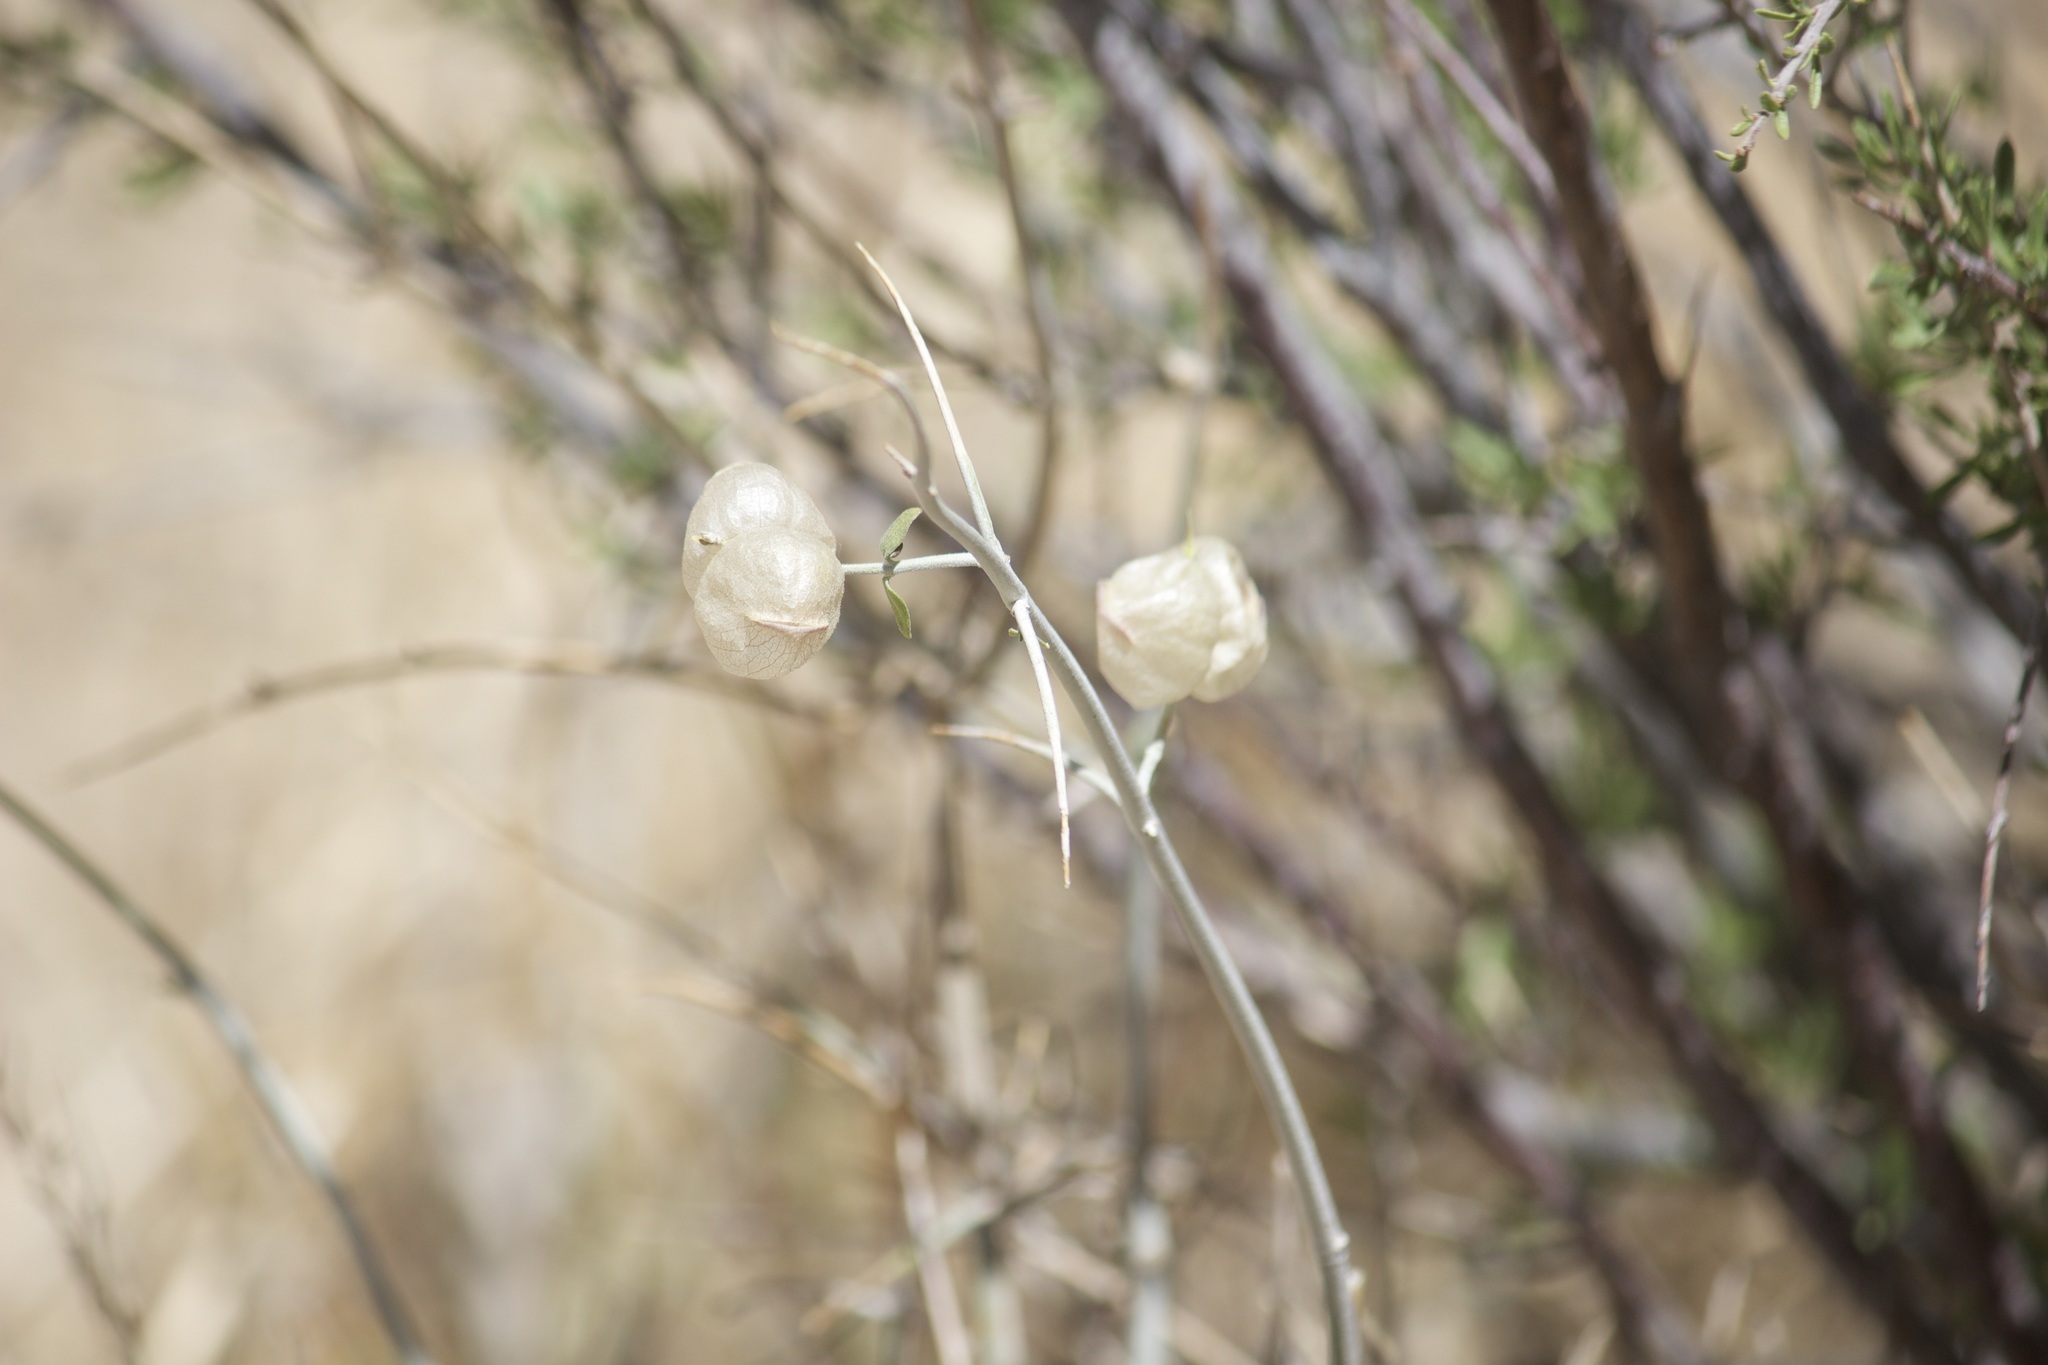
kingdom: Plantae
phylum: Tracheophyta
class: Magnoliopsida
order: Lamiales
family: Lamiaceae
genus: Scutellaria
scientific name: Scutellaria mexicana
